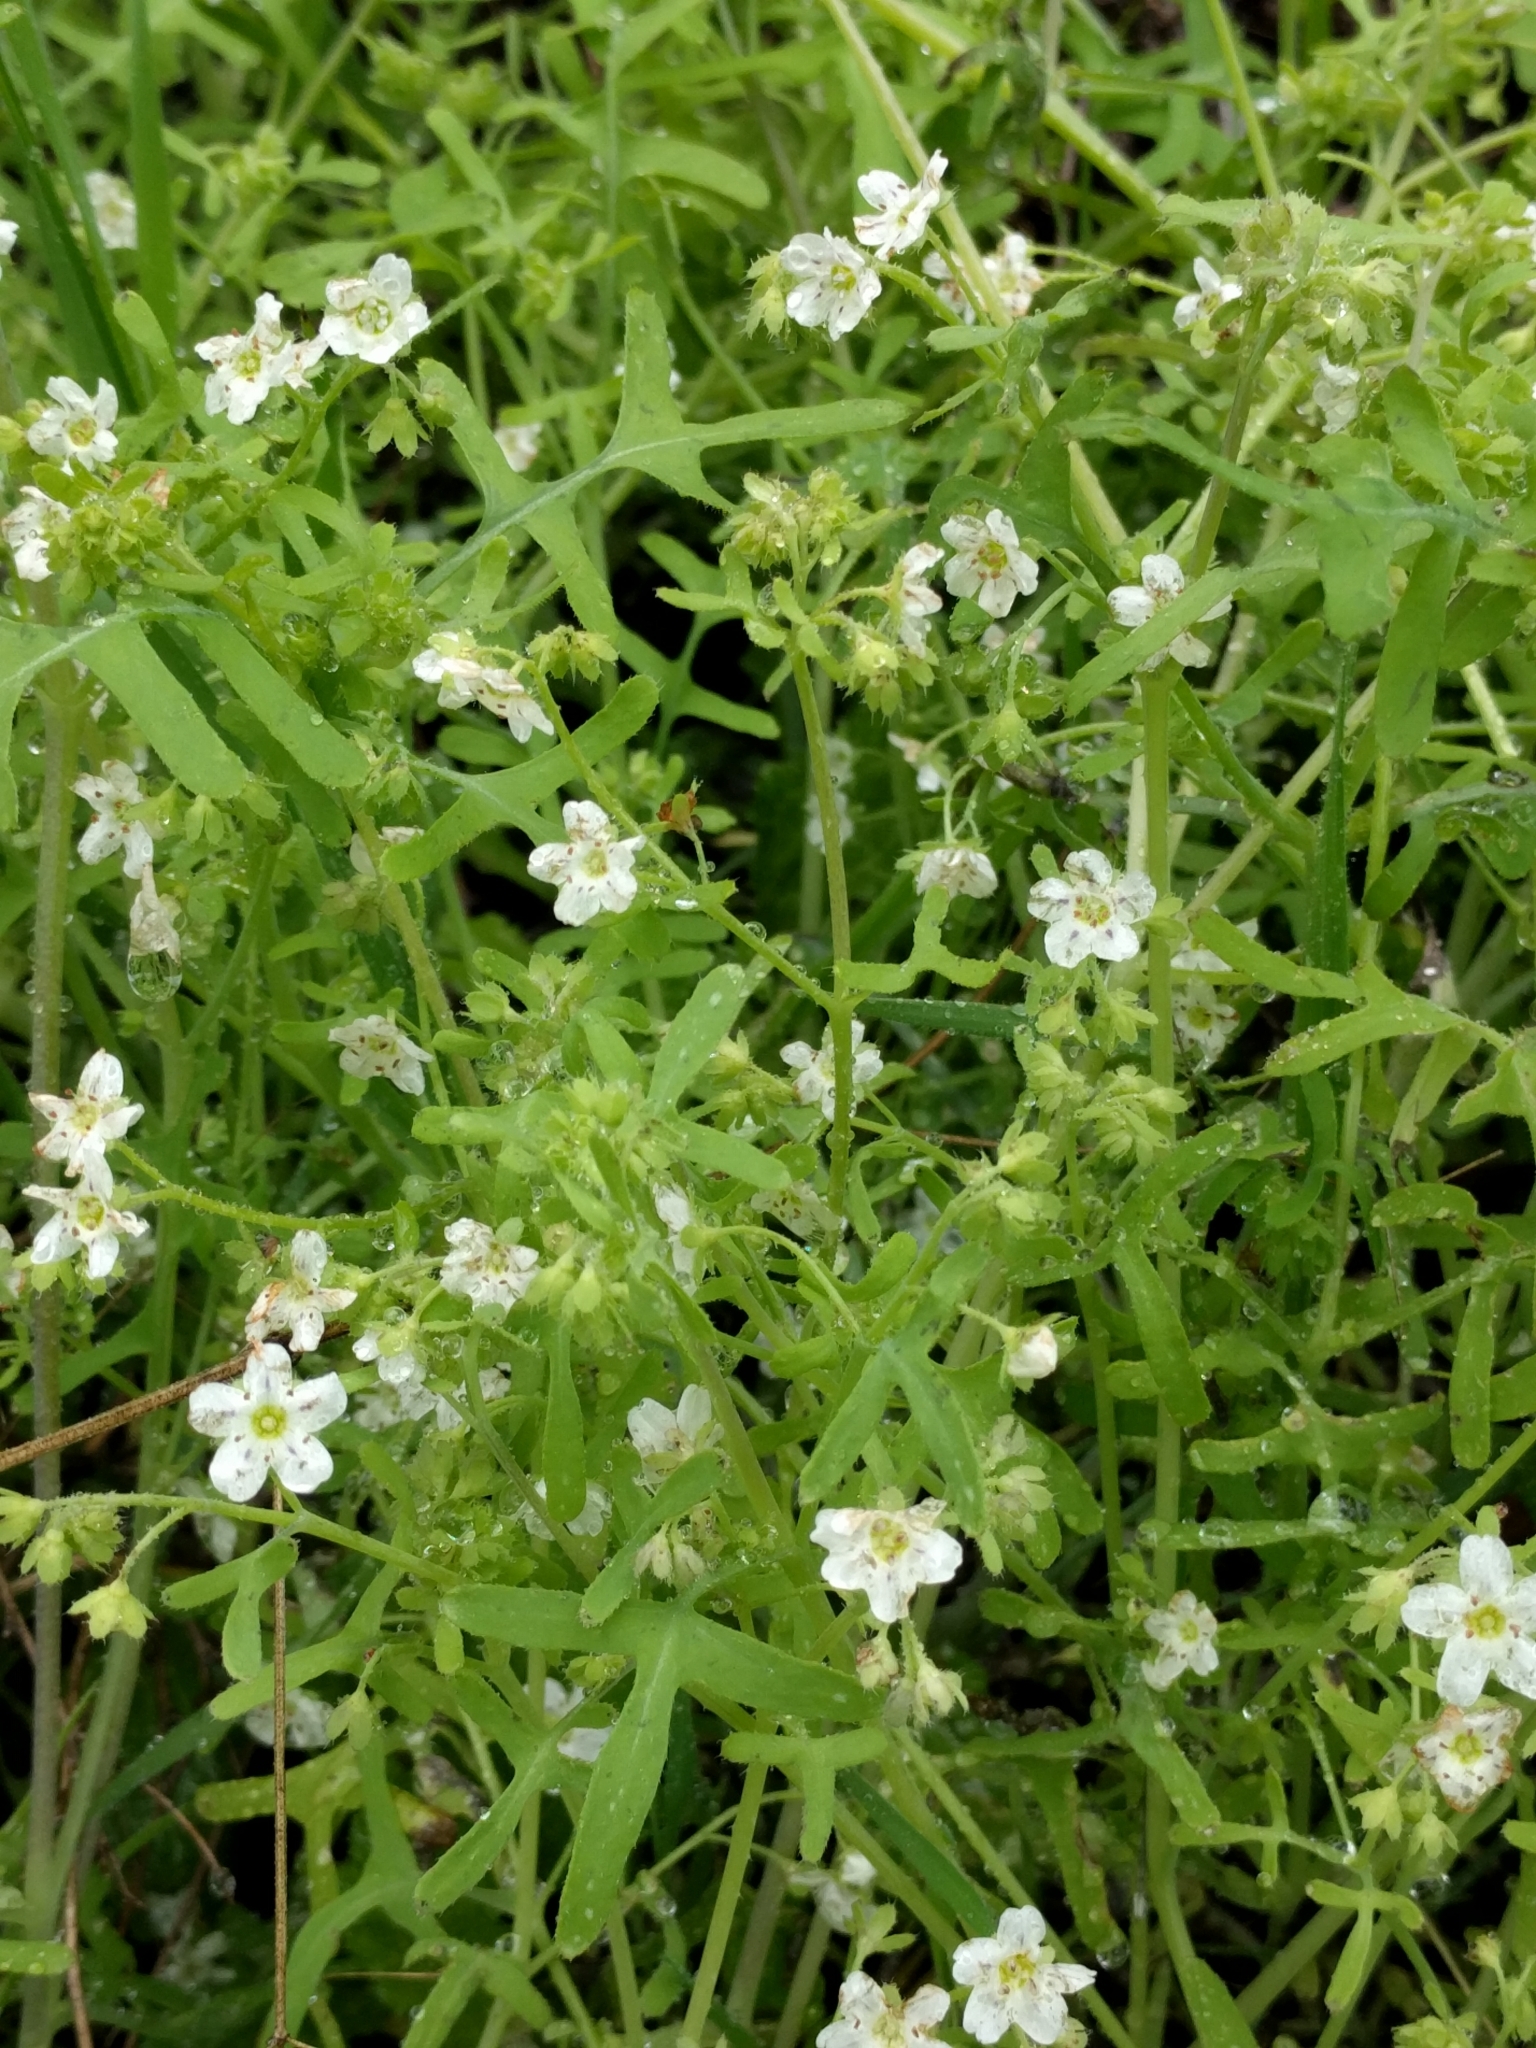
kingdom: Plantae
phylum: Tracheophyta
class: Magnoliopsida
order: Boraginales
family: Hydrophyllaceae
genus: Pholistoma
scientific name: Pholistoma membranaceum
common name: White fiesta-flower
